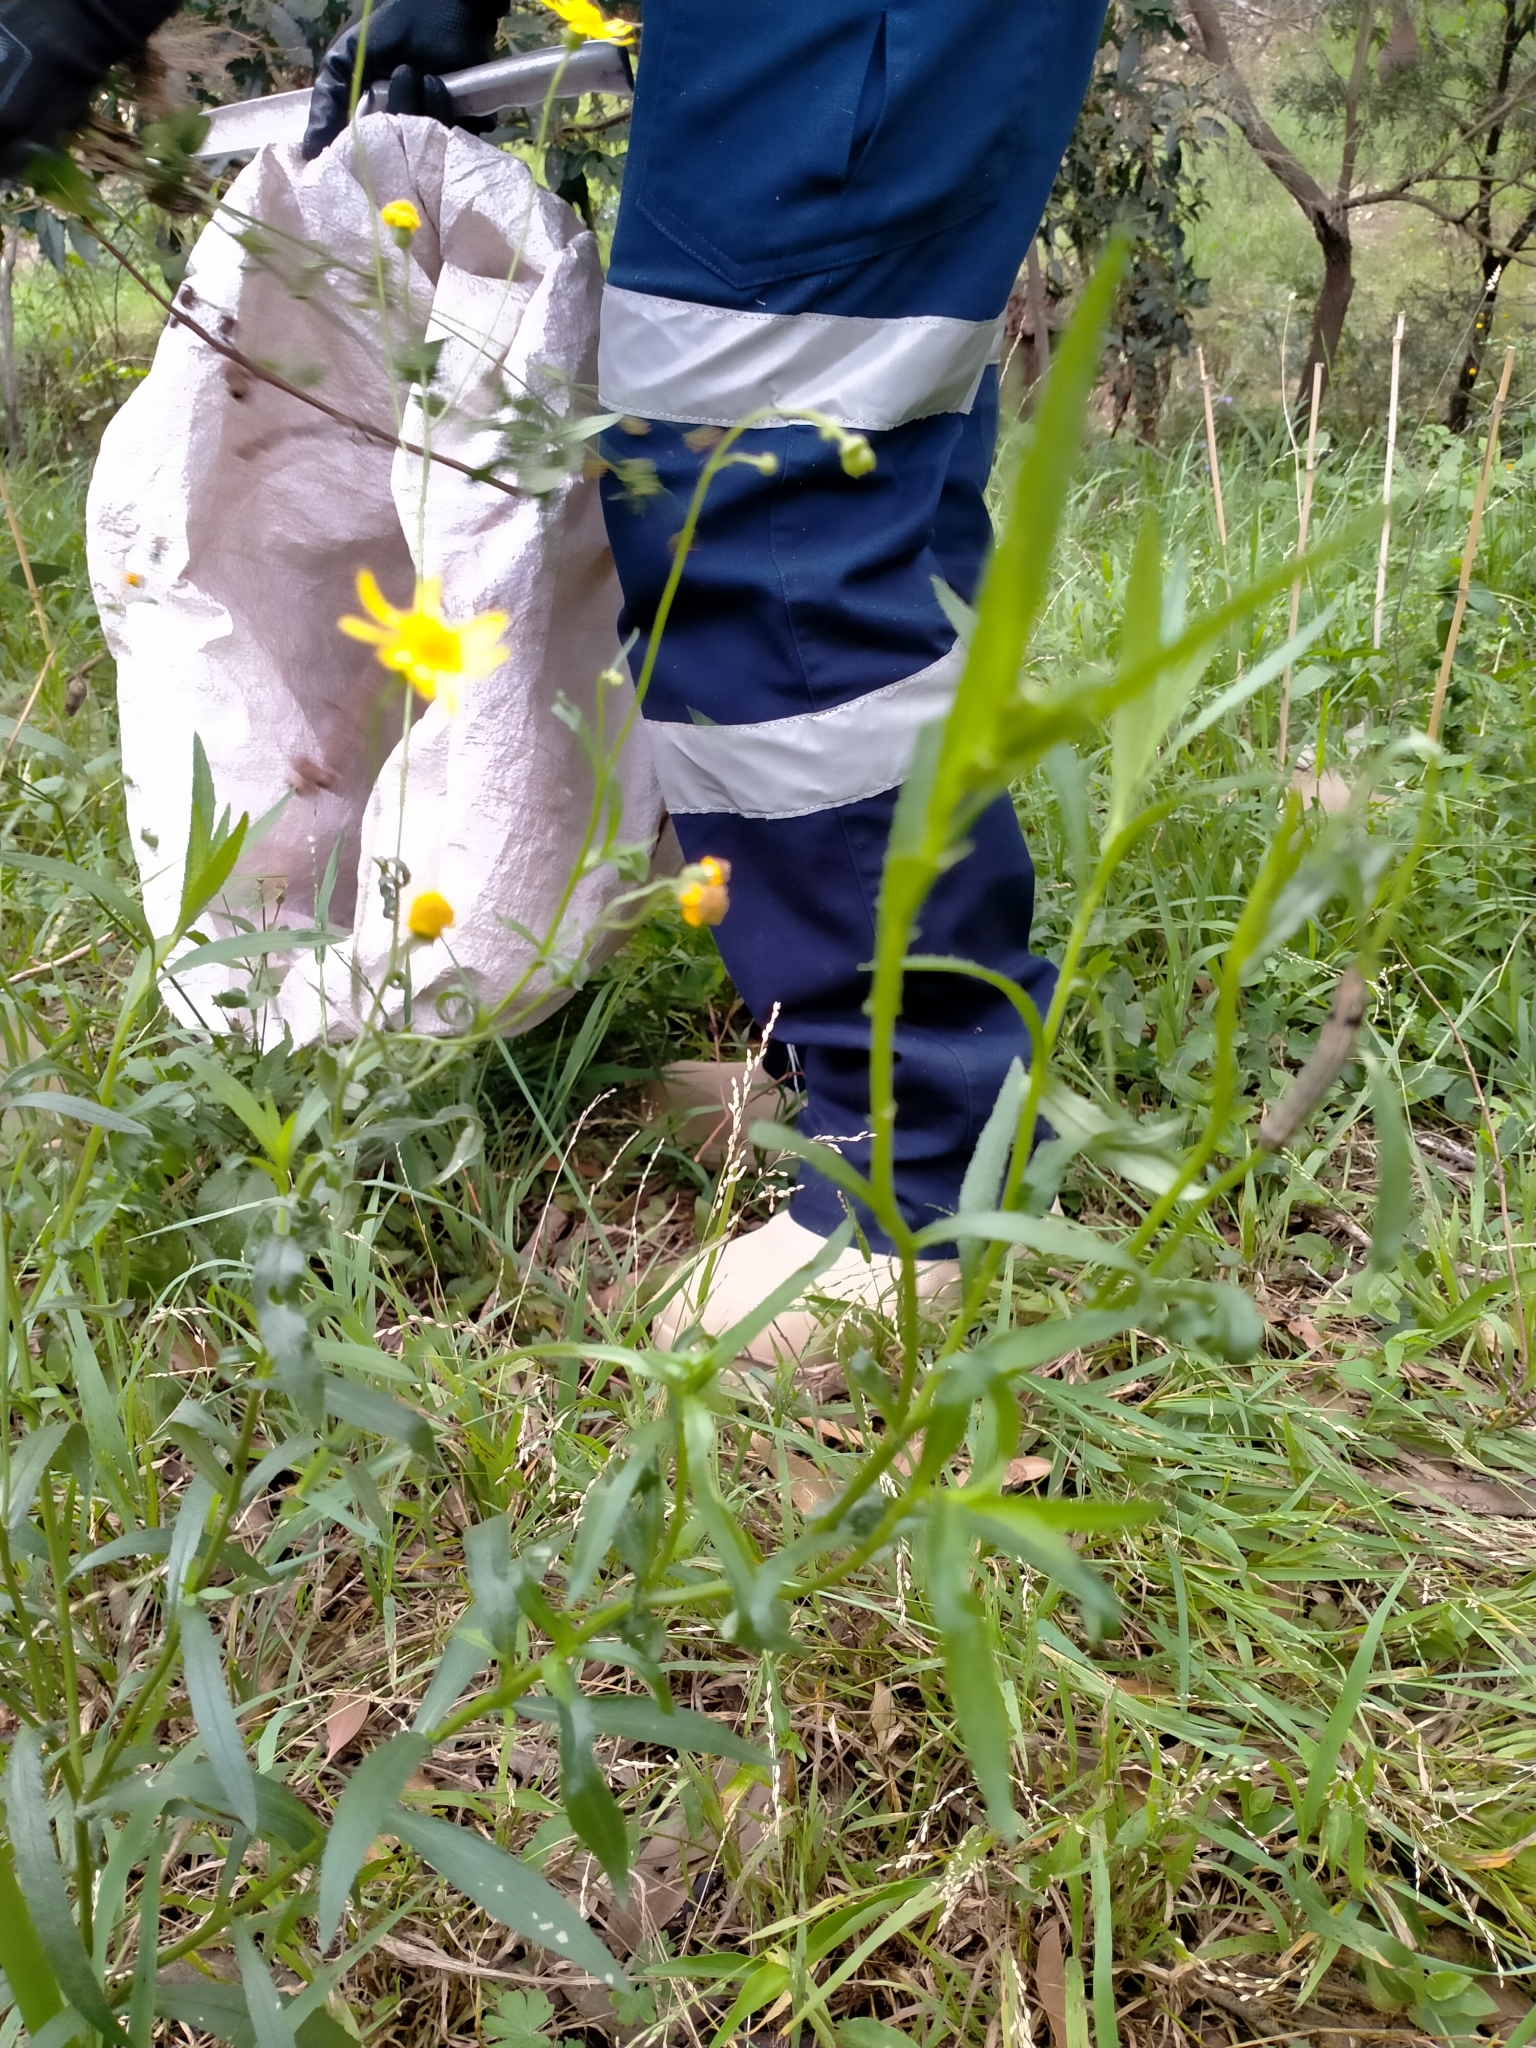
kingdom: Plantae
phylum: Tracheophyta
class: Magnoliopsida
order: Asterales
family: Asteraceae
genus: Senecio
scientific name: Senecio madagascariensis
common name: Madagascar ragwort
